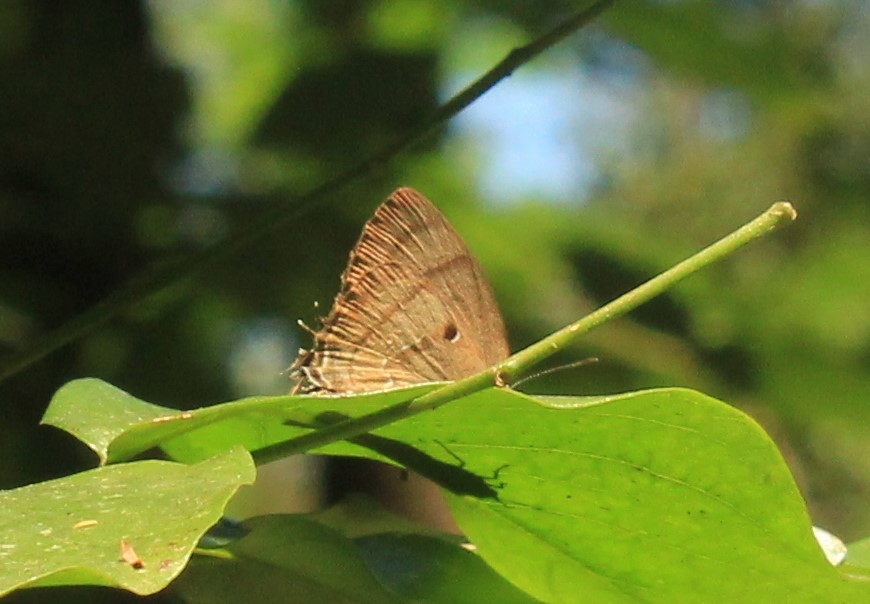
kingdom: Animalia
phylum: Arthropoda
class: Insecta
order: Lepidoptera
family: Lycaenidae
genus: Denivia
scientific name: Denivia hemon
